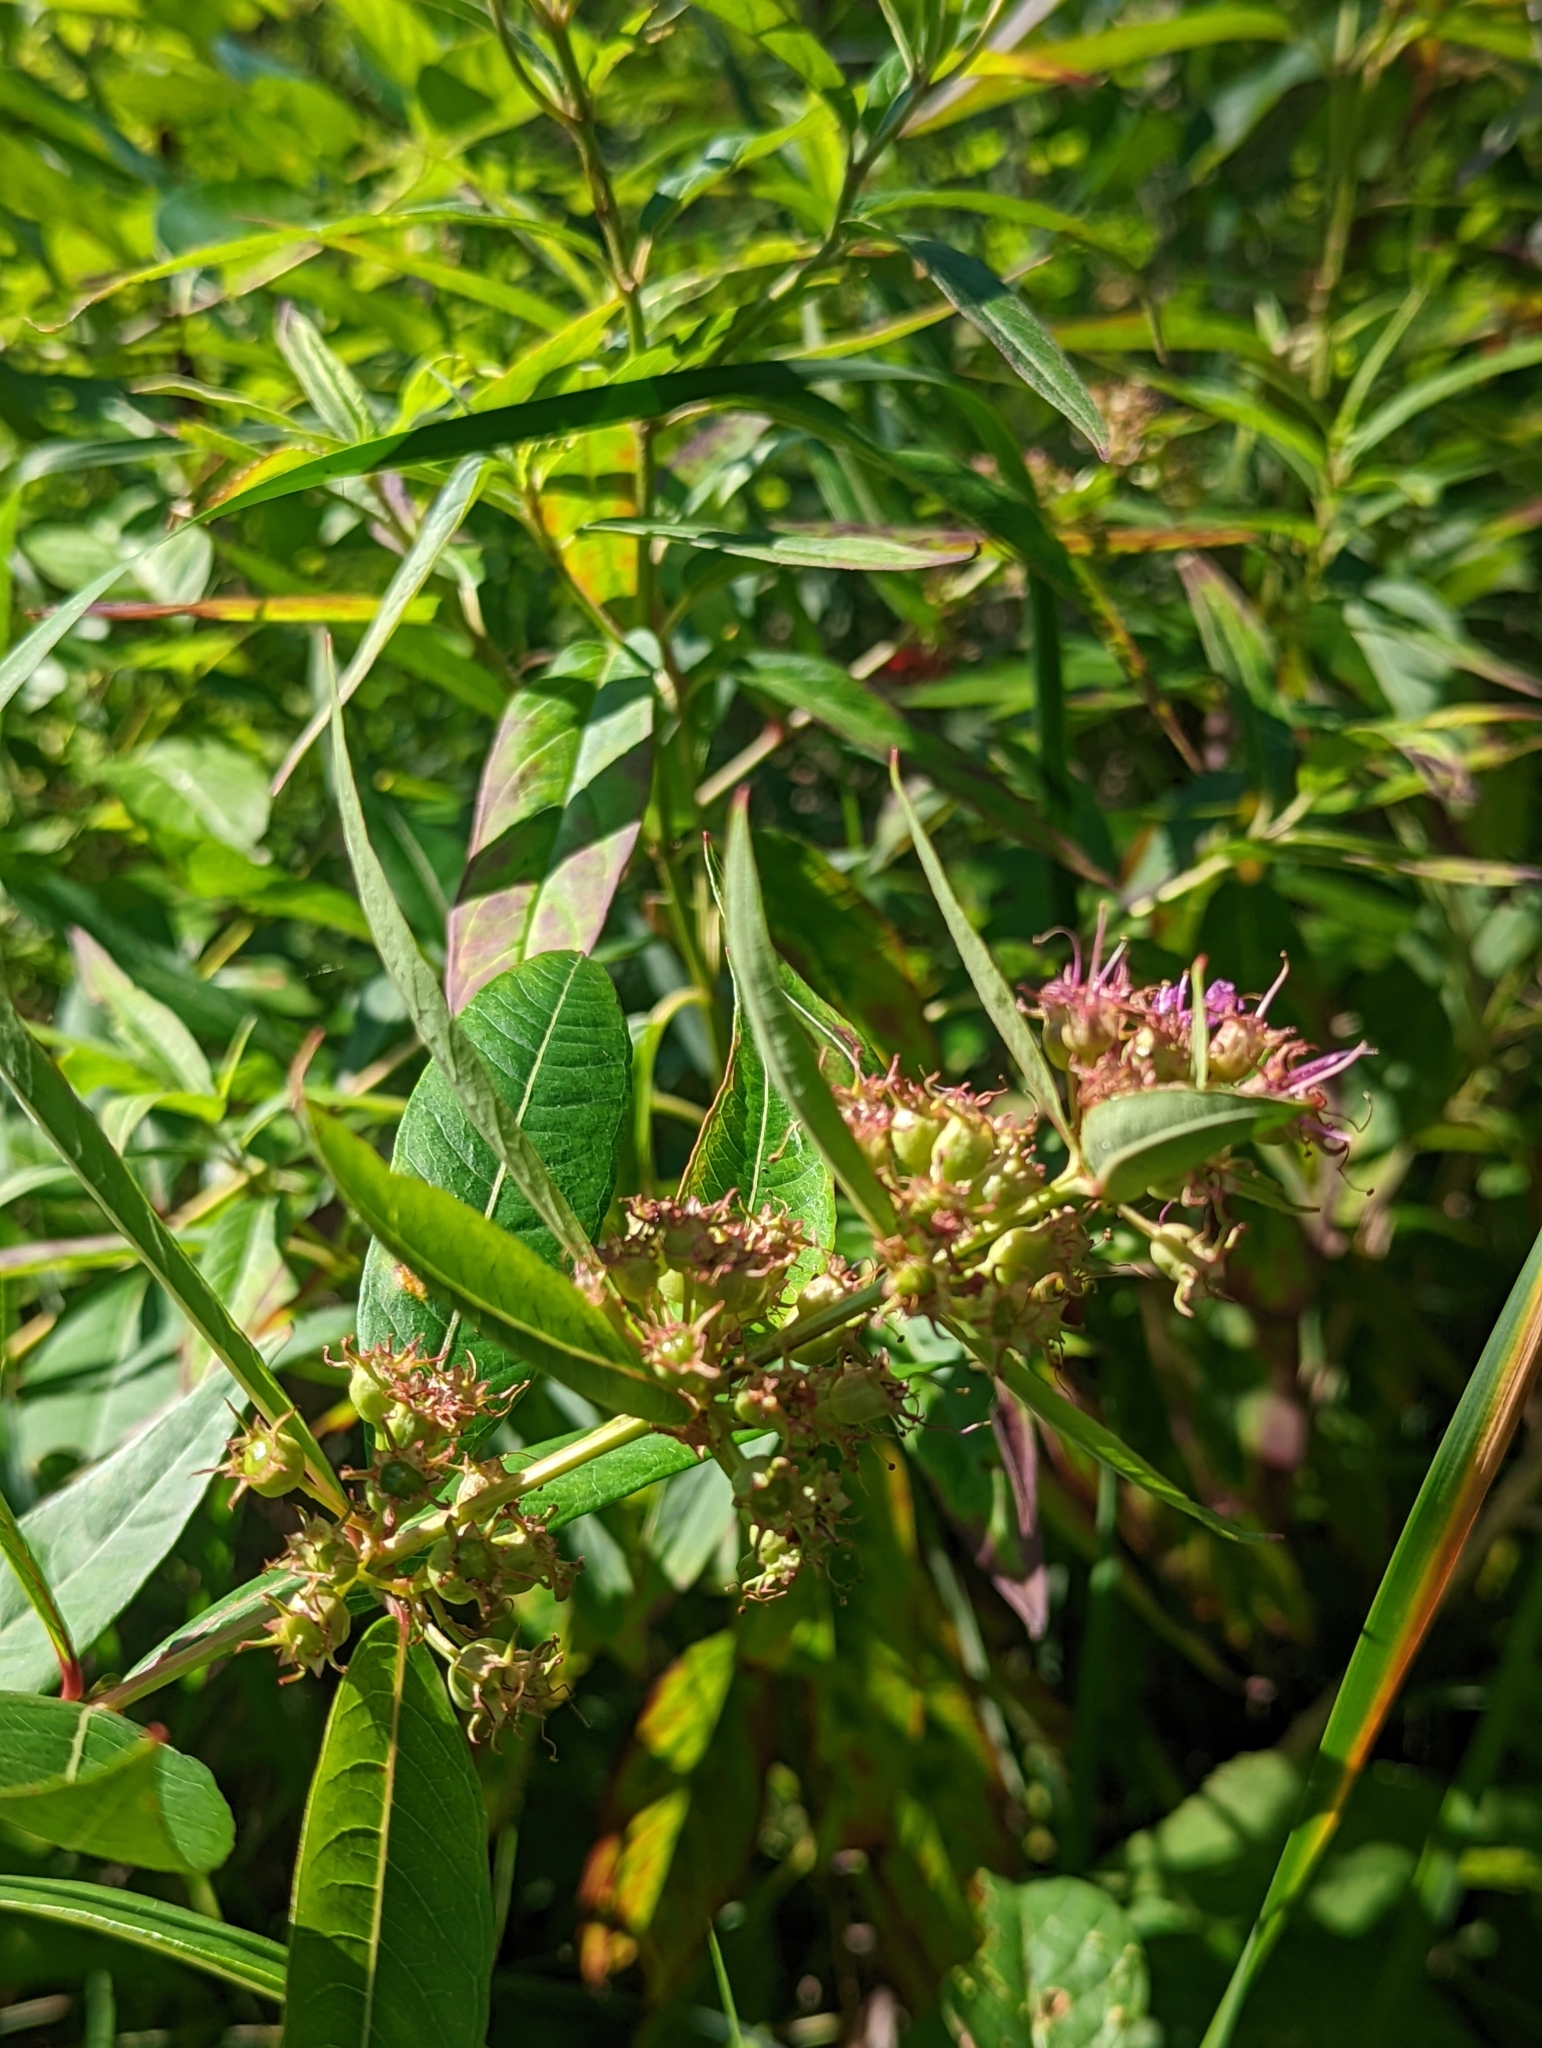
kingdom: Plantae
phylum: Tracheophyta
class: Magnoliopsida
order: Myrtales
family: Lythraceae
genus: Decodon
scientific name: Decodon verticillatus
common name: Hairy swamp loosestrife
